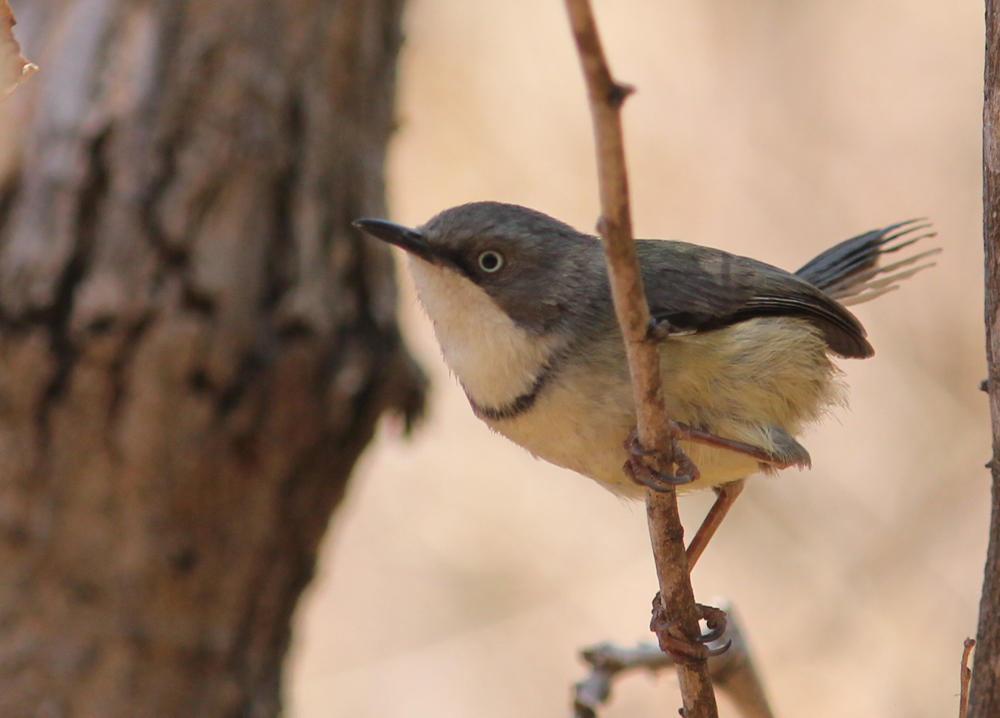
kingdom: Animalia
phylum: Chordata
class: Aves
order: Passeriformes
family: Cisticolidae
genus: Apalis
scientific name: Apalis thoracica
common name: Bar-throated apalis
